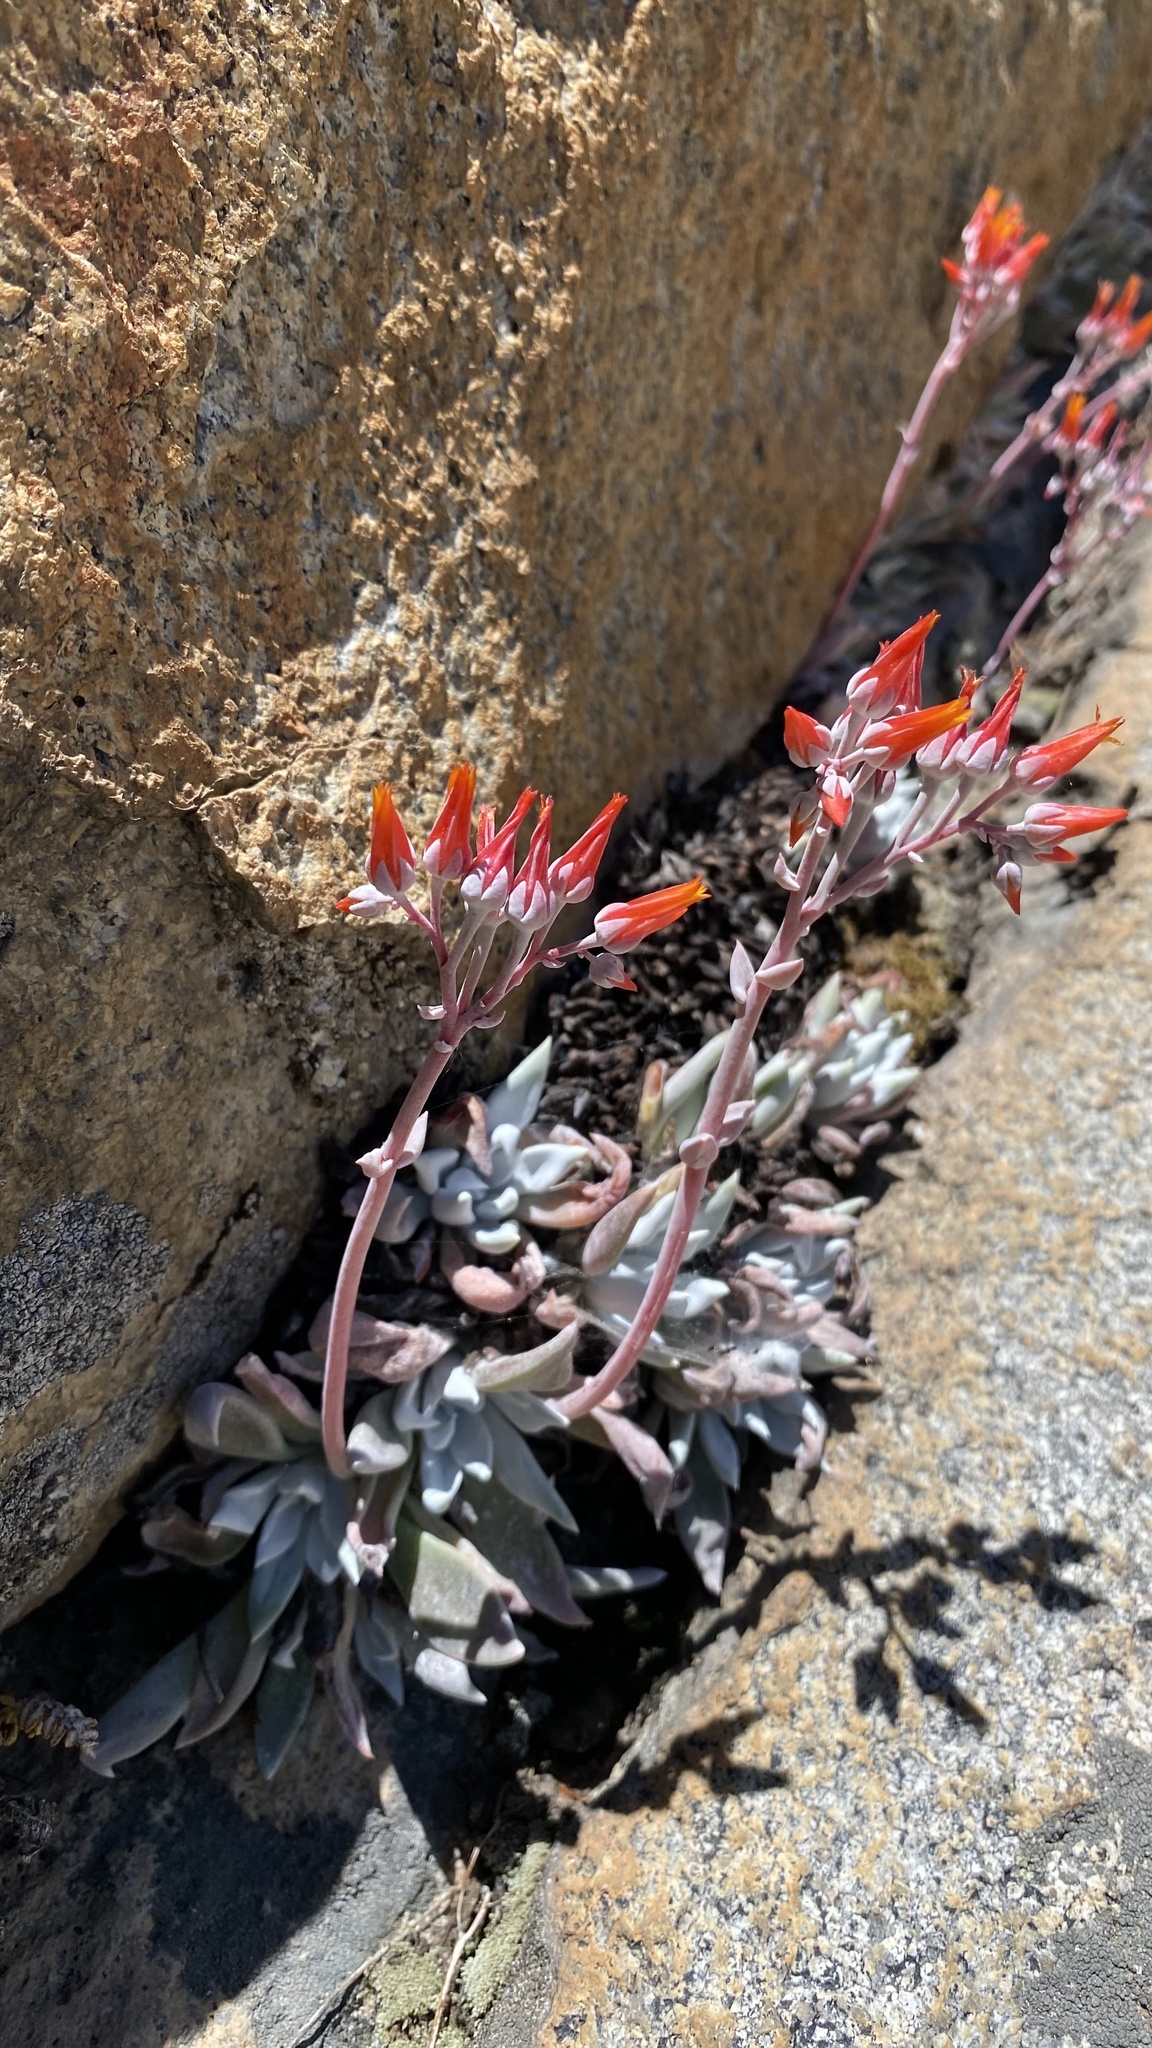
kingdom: Plantae
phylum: Tracheophyta
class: Magnoliopsida
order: Saxifragales
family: Crassulaceae
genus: Dudleya
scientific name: Dudleya cymosa
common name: Canyon dudleya
